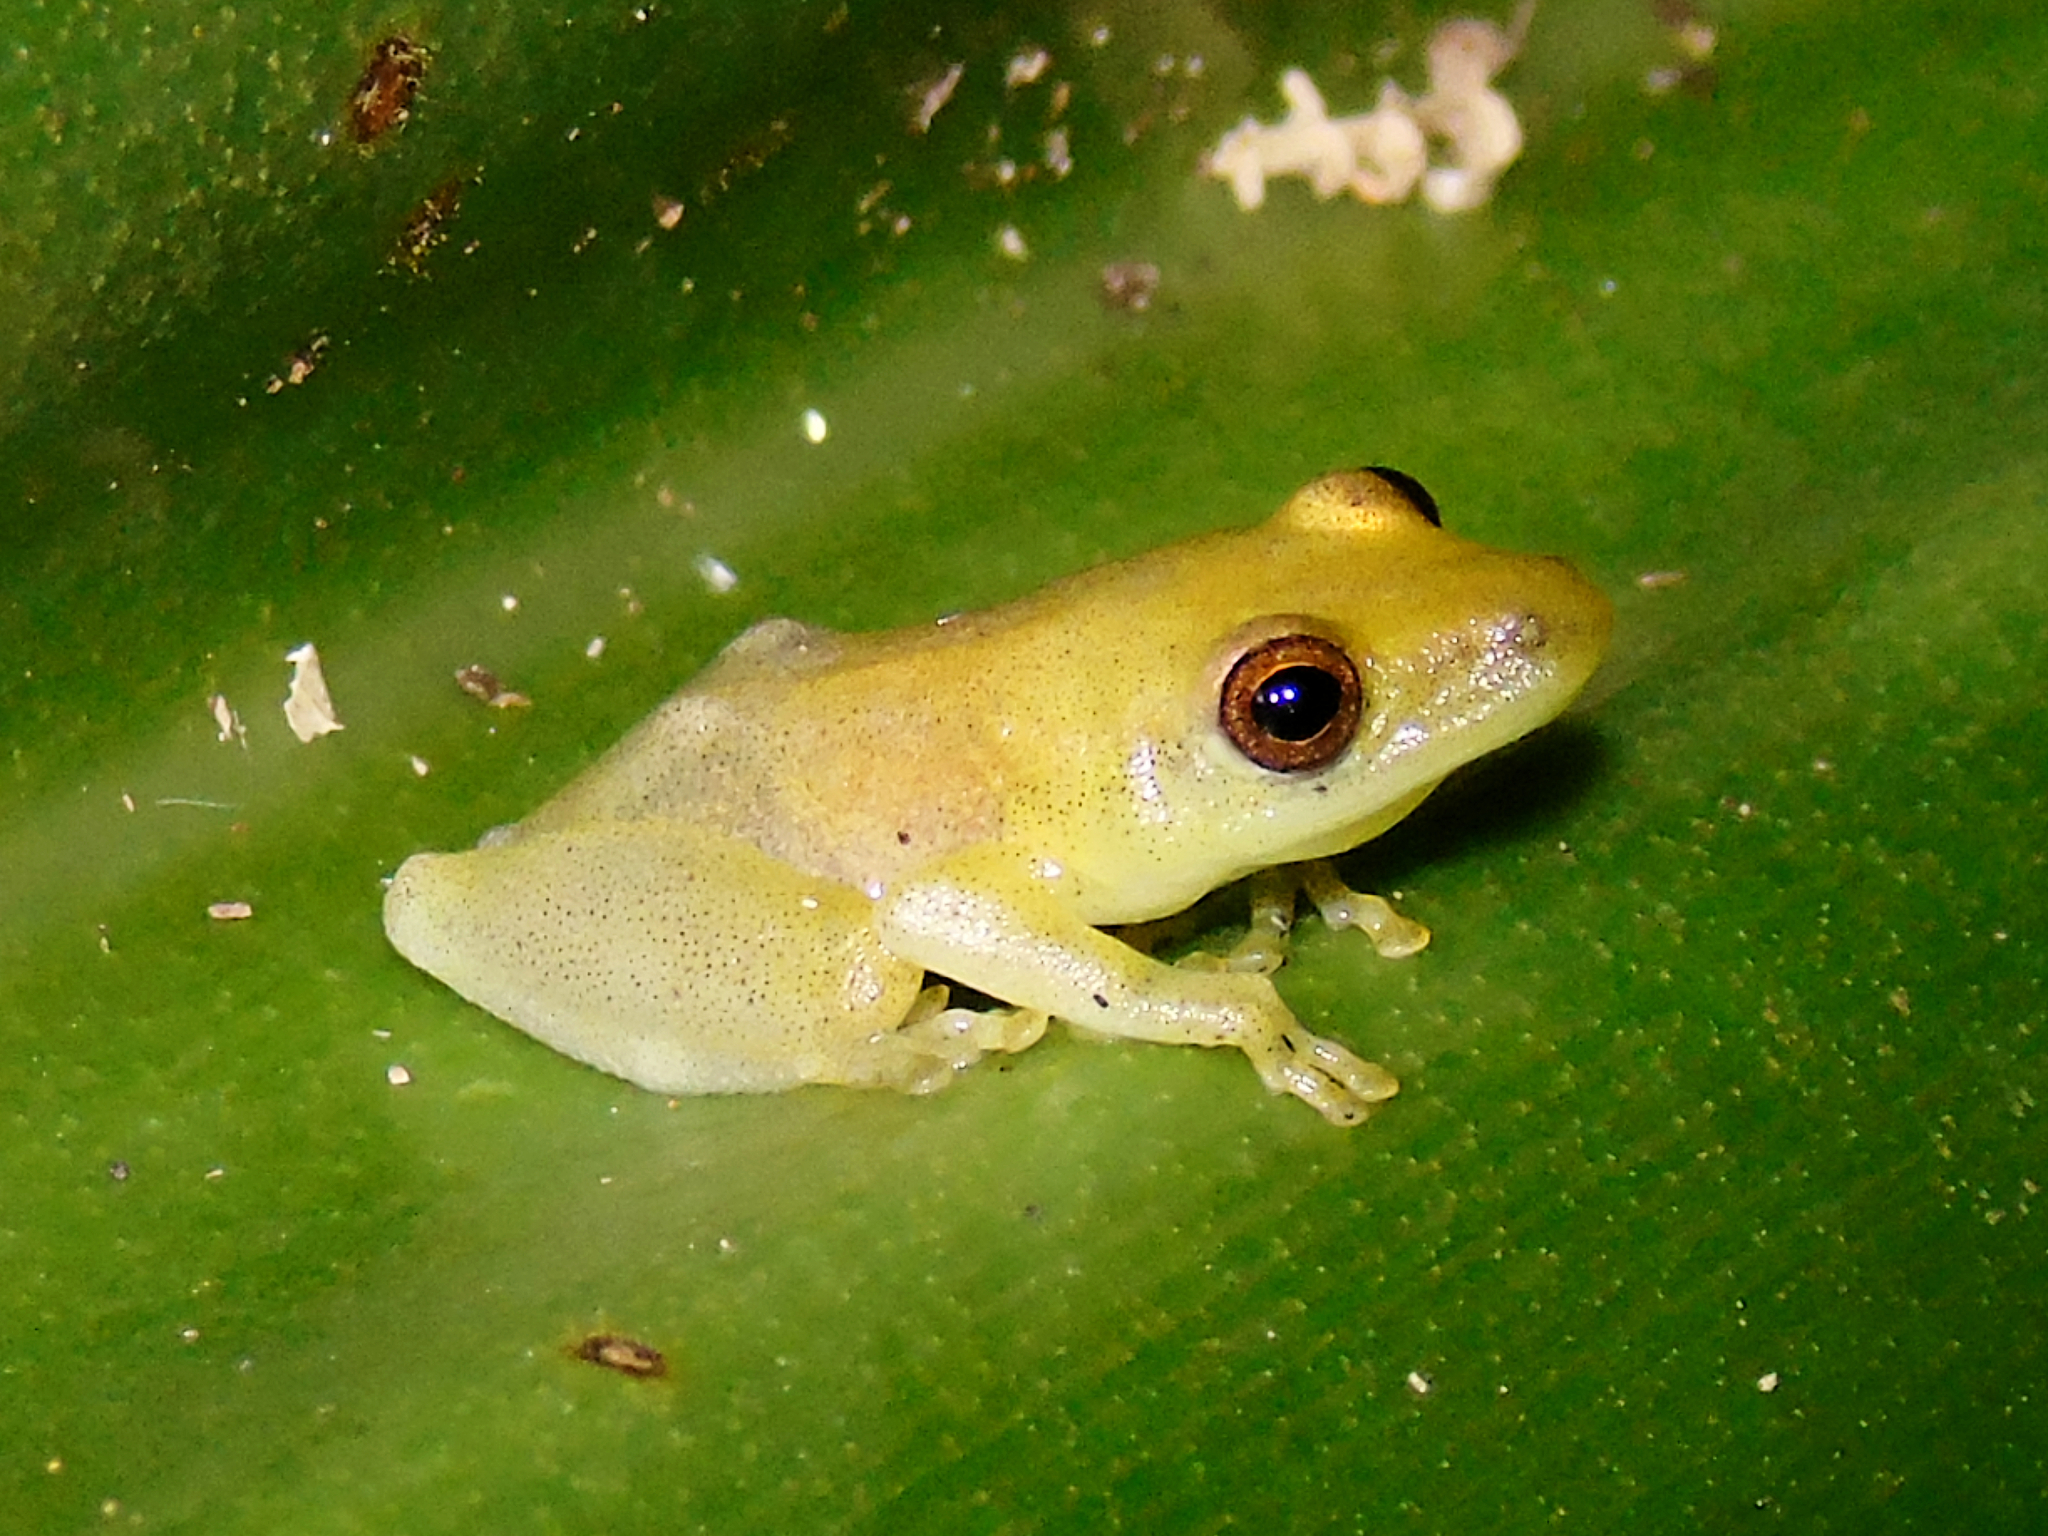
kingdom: Animalia
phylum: Chordata
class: Amphibia
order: Anura
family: Hyperoliidae
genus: Hyperolius
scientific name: Hyperolius parkeri
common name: Brown-or-green sedge frog
